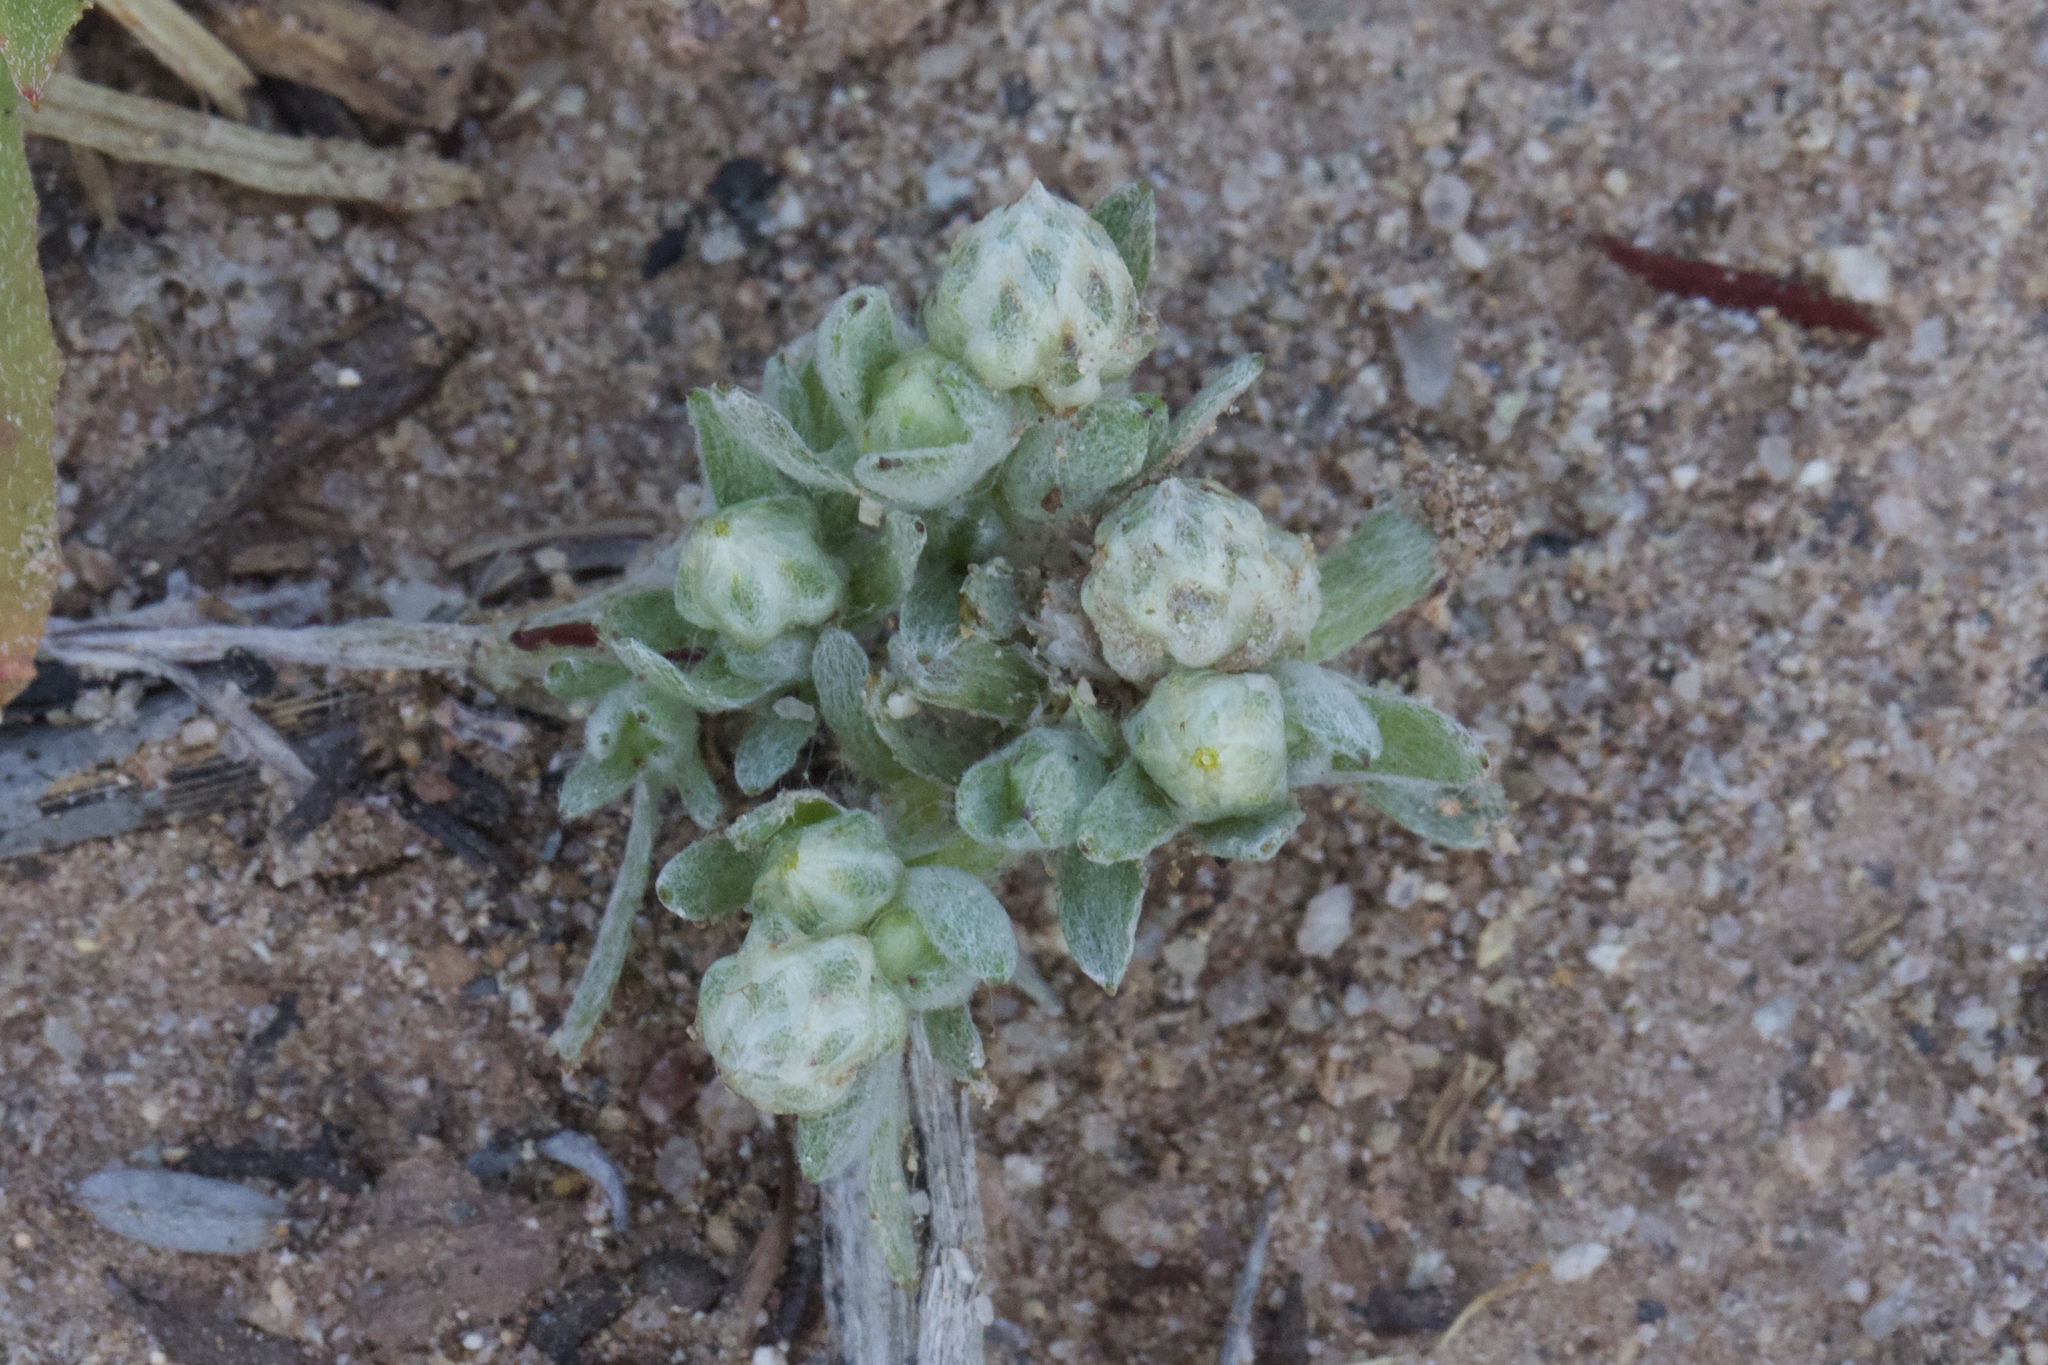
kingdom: Plantae
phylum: Tracheophyta
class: Magnoliopsida
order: Asterales
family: Asteraceae
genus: Stylocline
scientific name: Stylocline gnaphaloides
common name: Everlasting nest-straw
